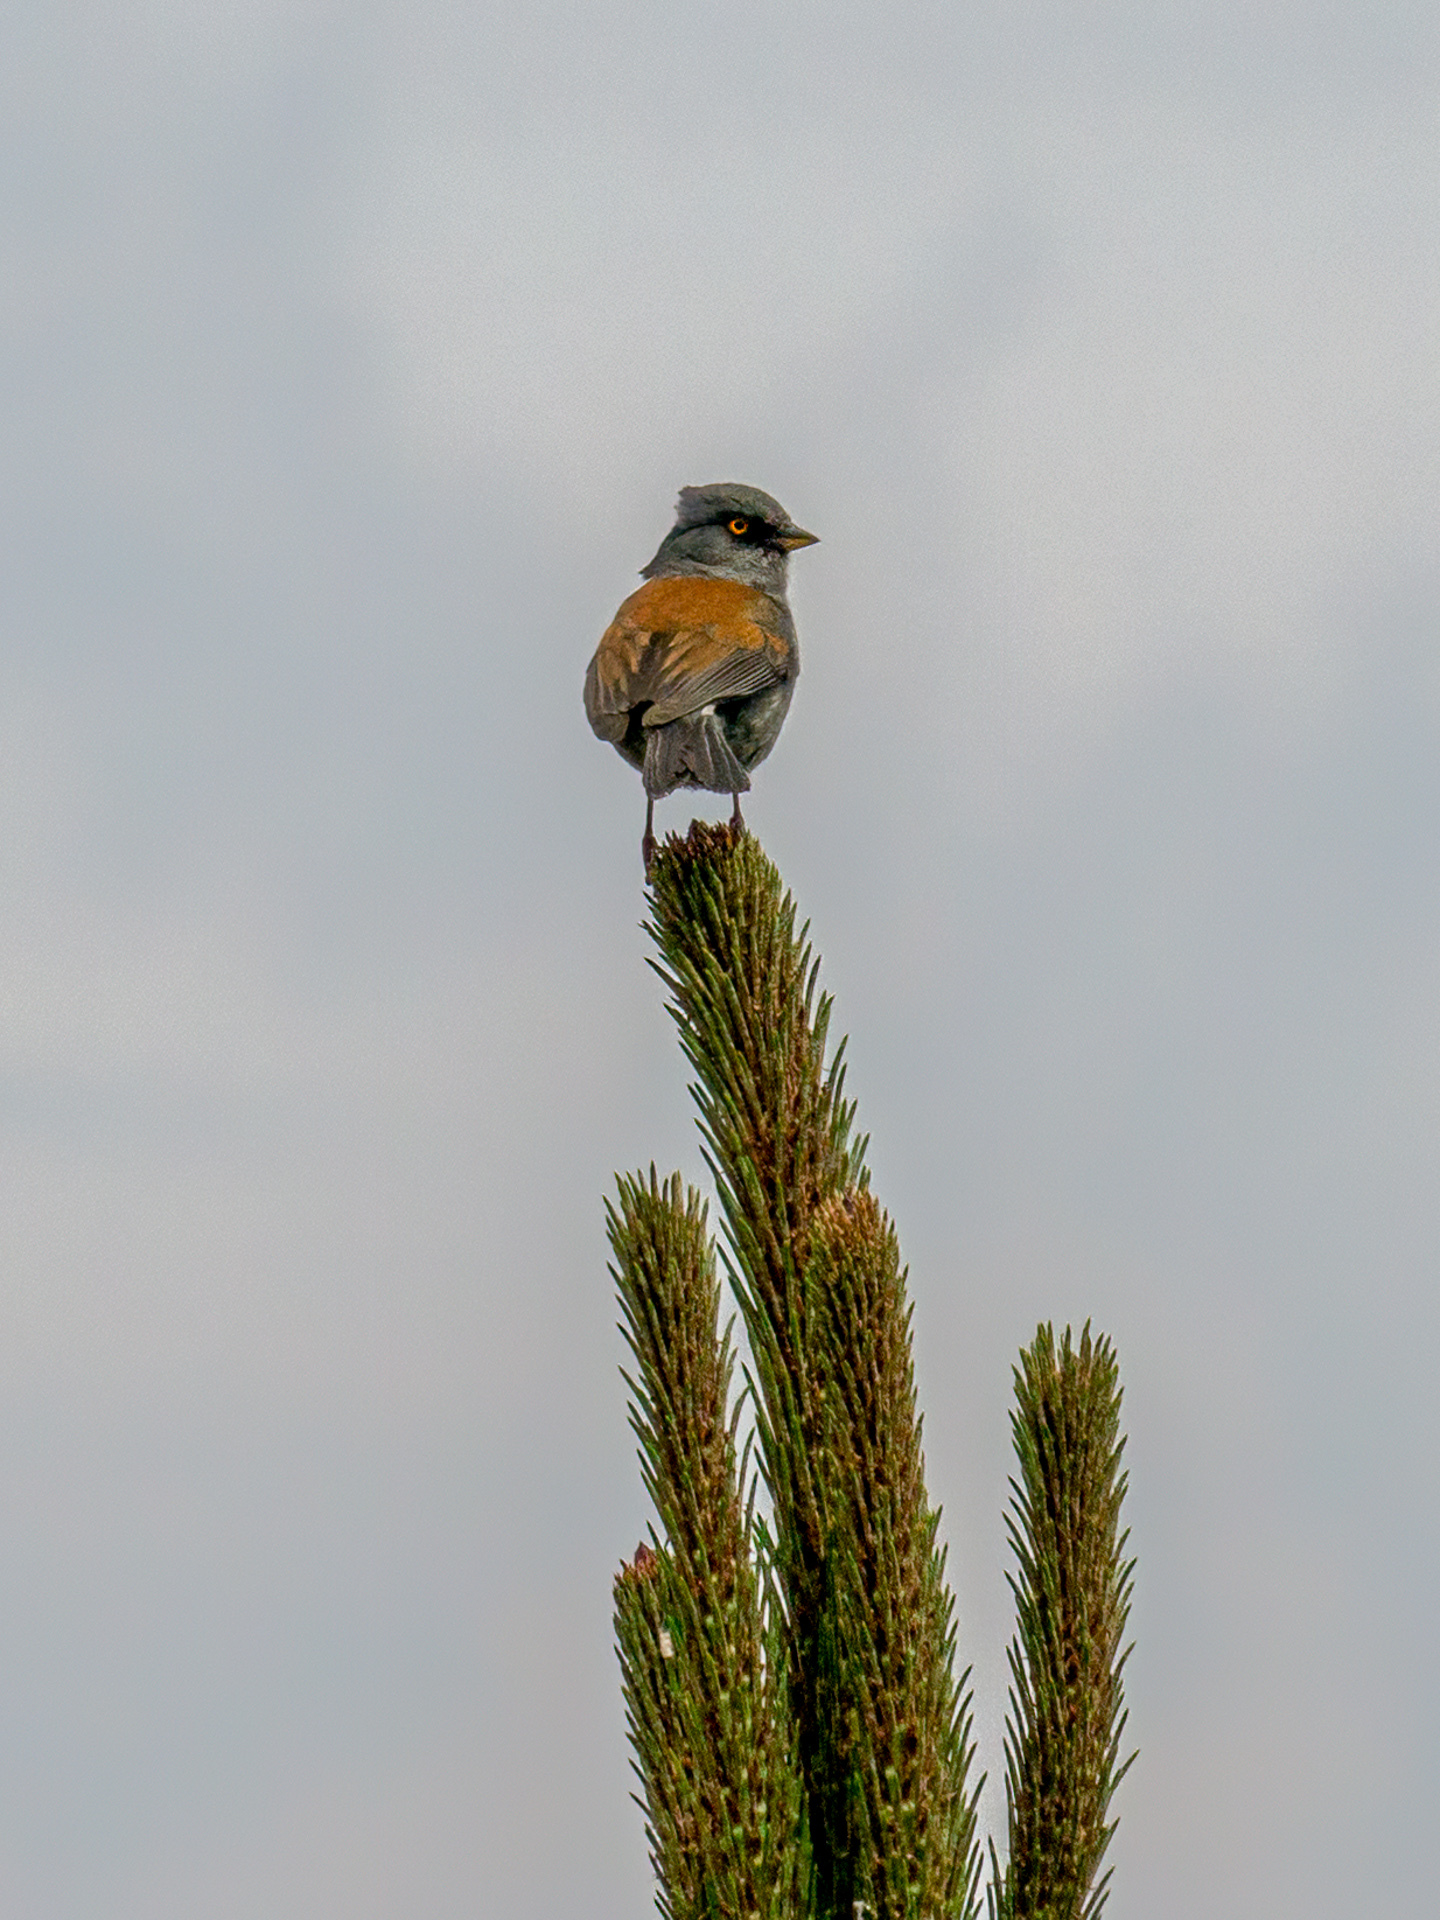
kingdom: Animalia
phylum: Chordata
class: Aves
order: Passeriformes
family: Passerellidae
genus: Junco
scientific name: Junco phaeonotus
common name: Yellow-eyed junco
